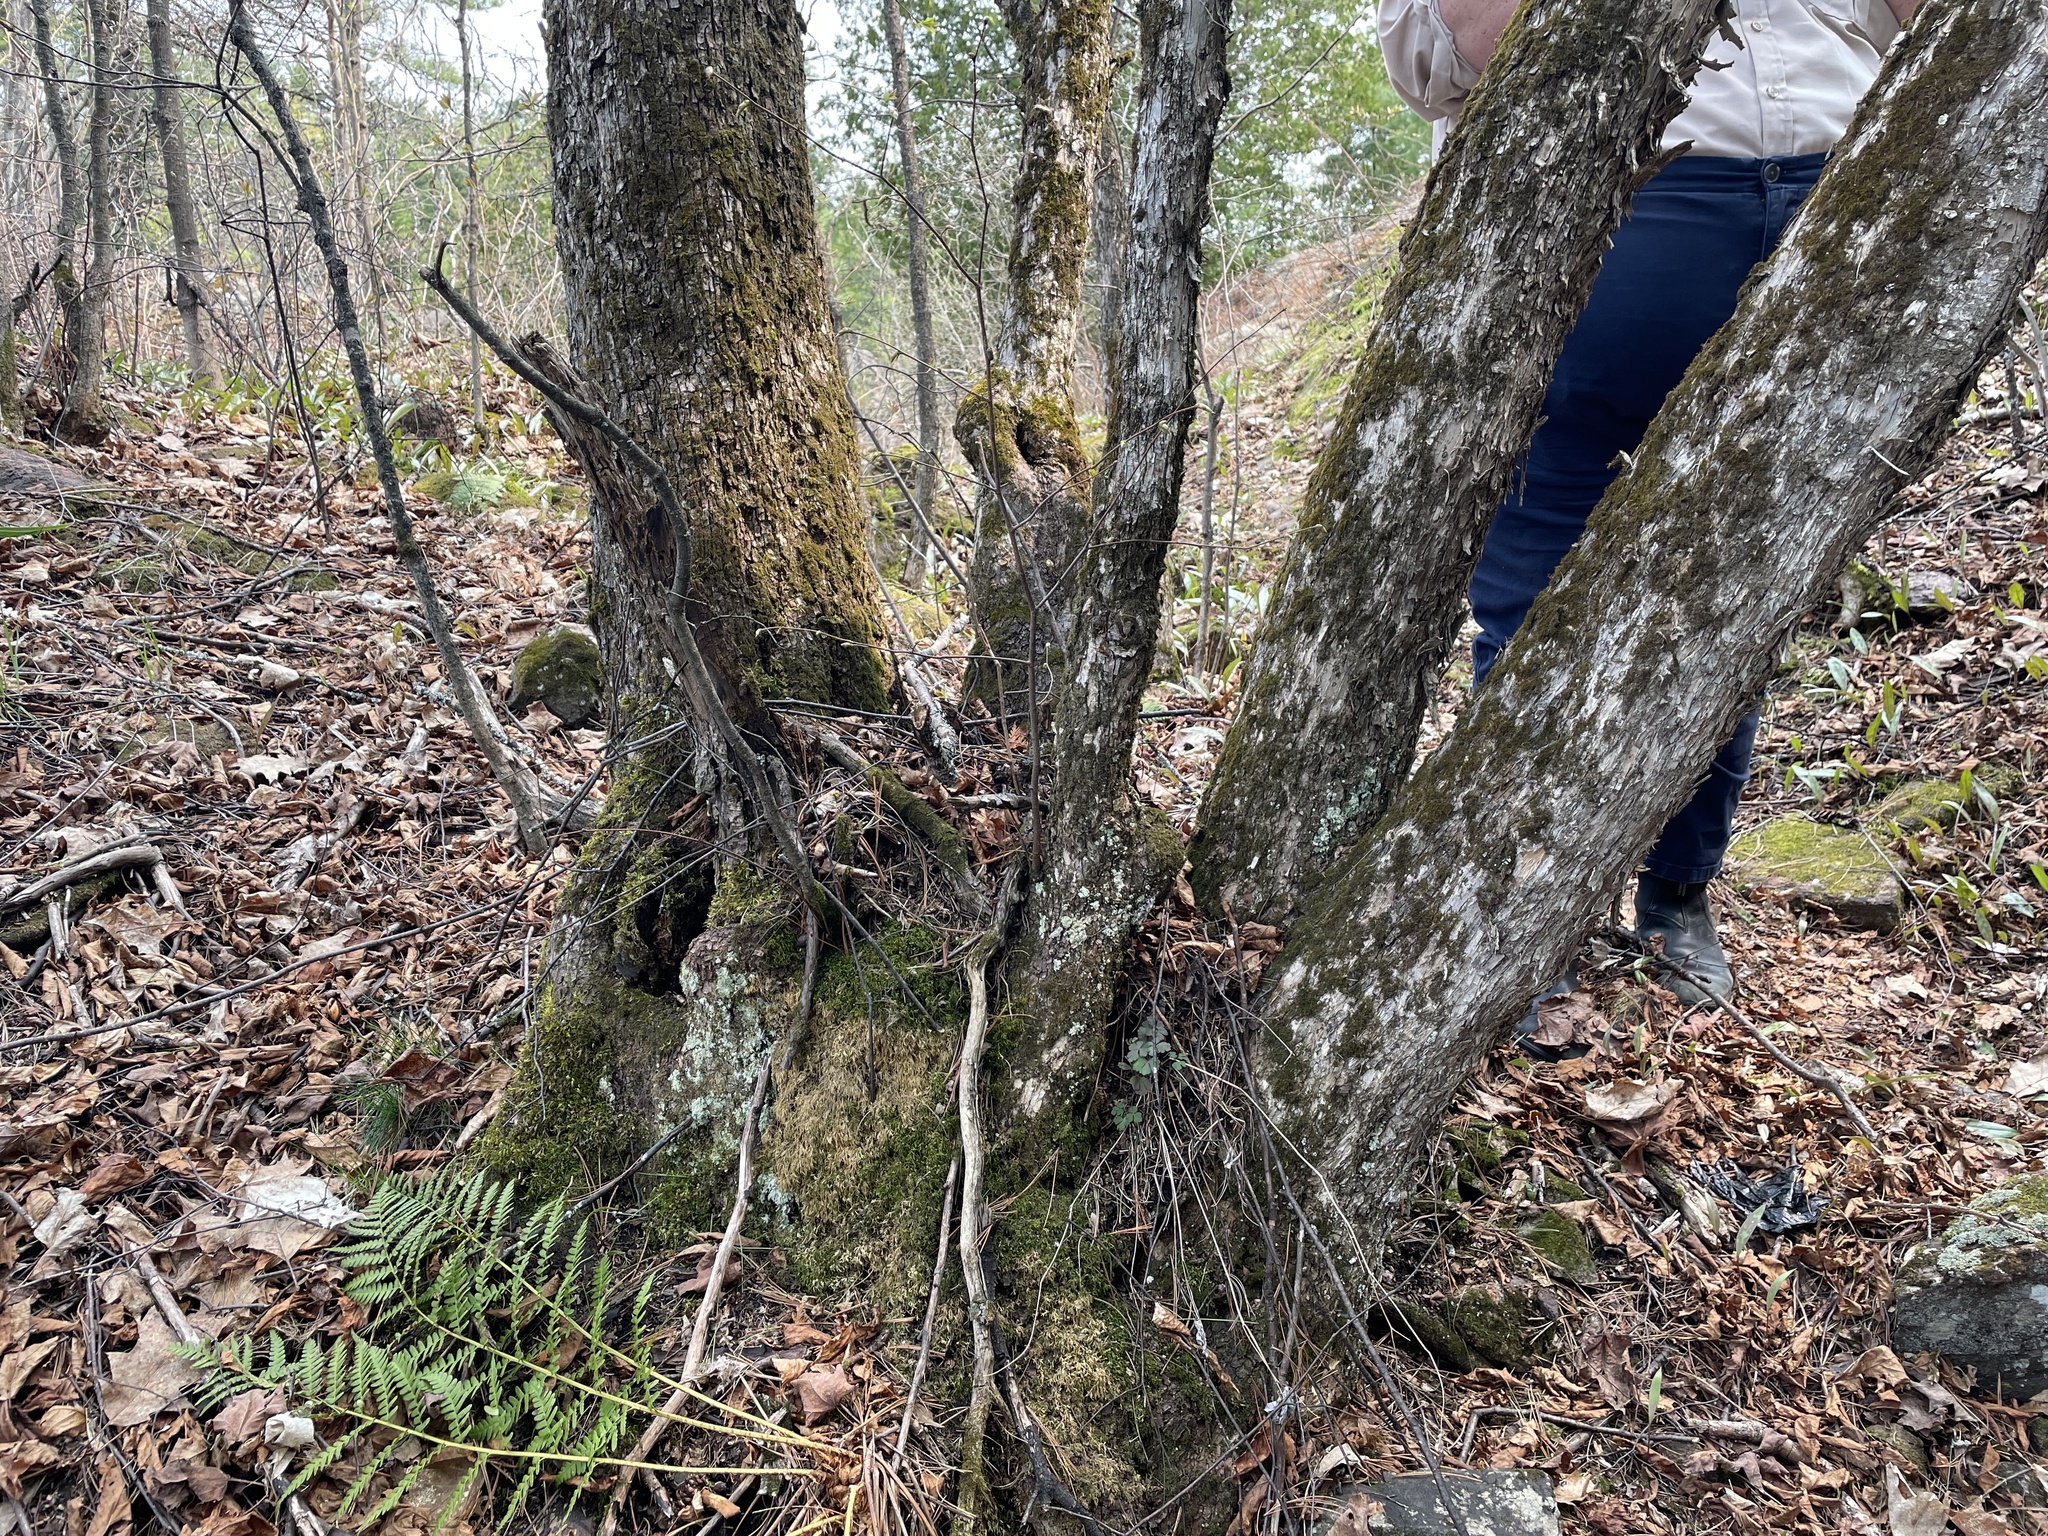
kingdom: Plantae
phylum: Tracheophyta
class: Magnoliopsida
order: Fagales
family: Betulaceae
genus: Ostrya
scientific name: Ostrya virginiana
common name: Ironwood
